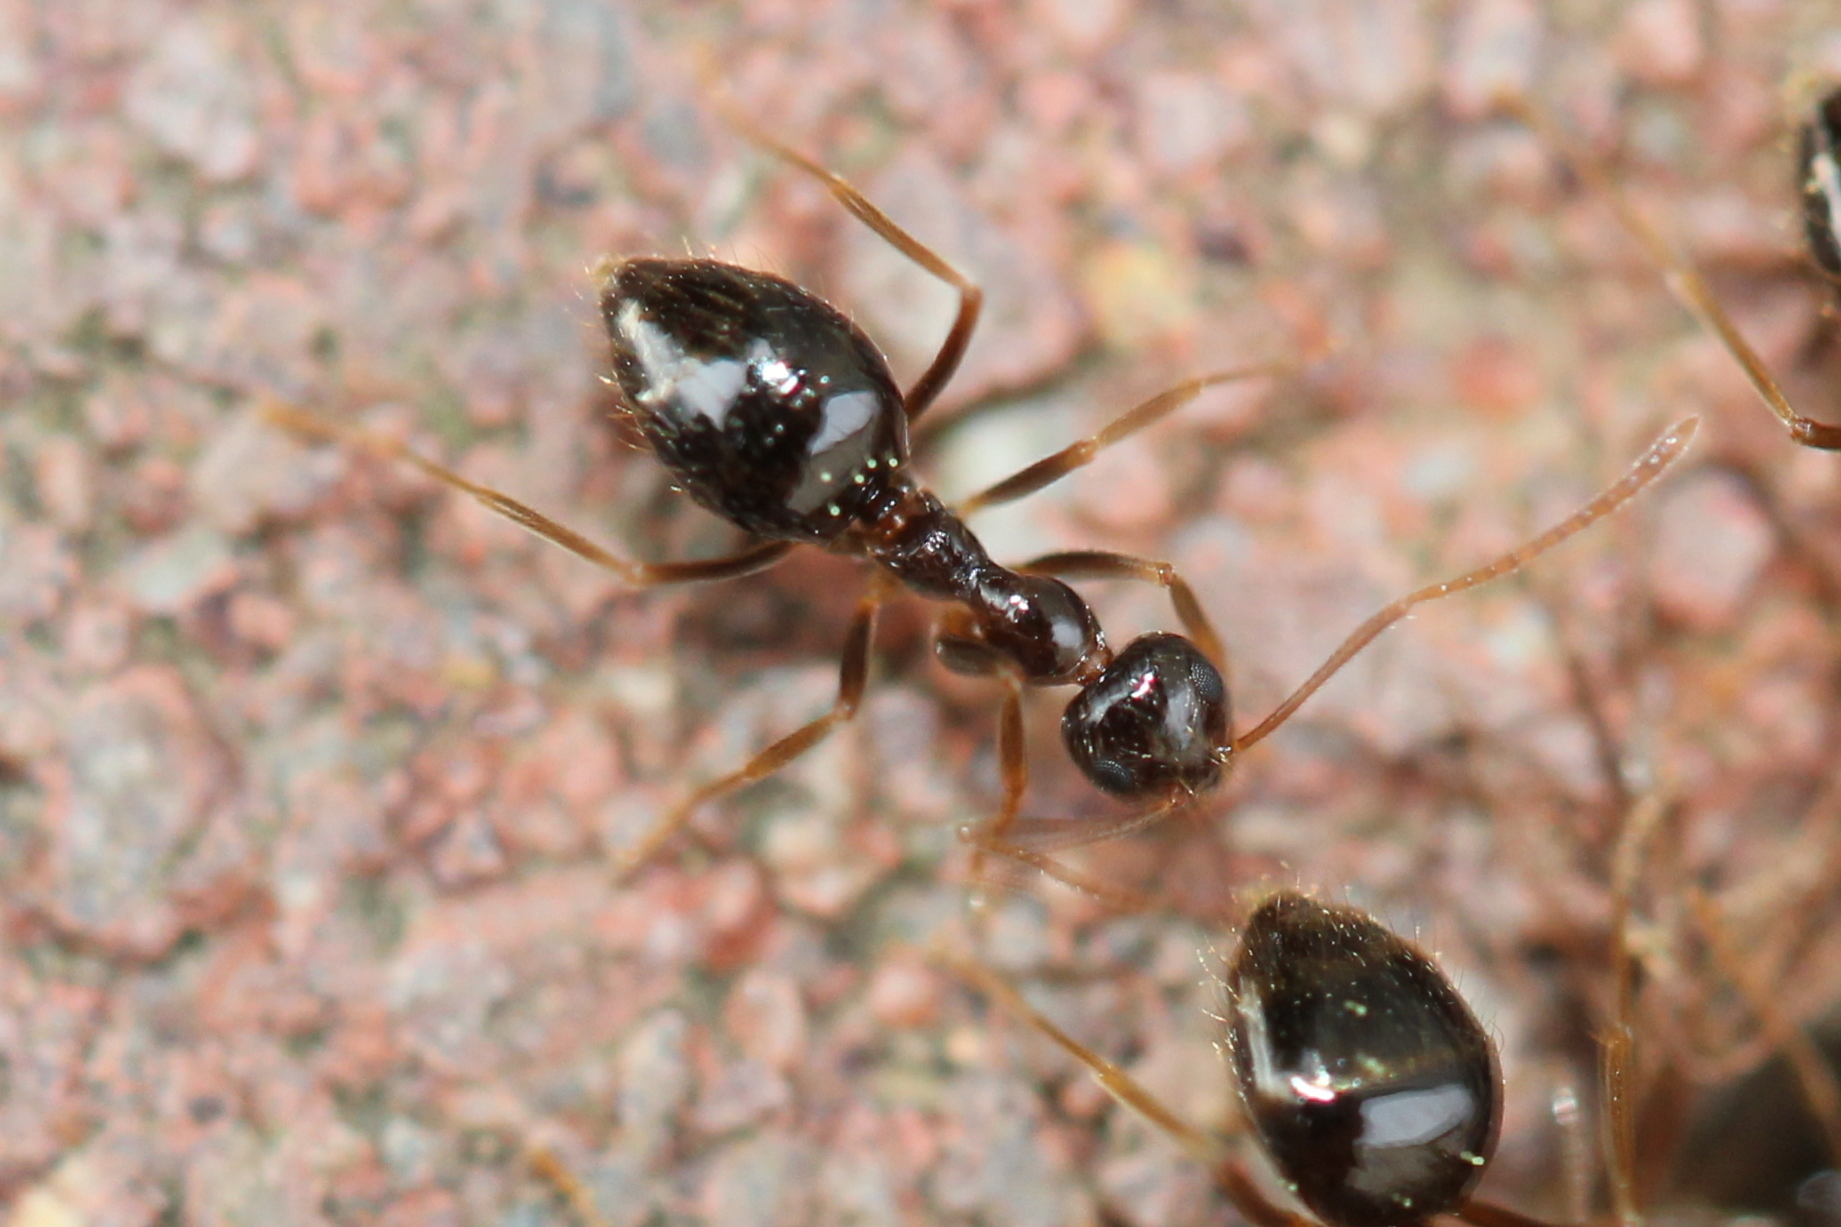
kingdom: Animalia
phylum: Arthropoda
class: Insecta
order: Hymenoptera
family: Formicidae
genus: Prenolepis
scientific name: Prenolepis imparis
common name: Small honey ant
